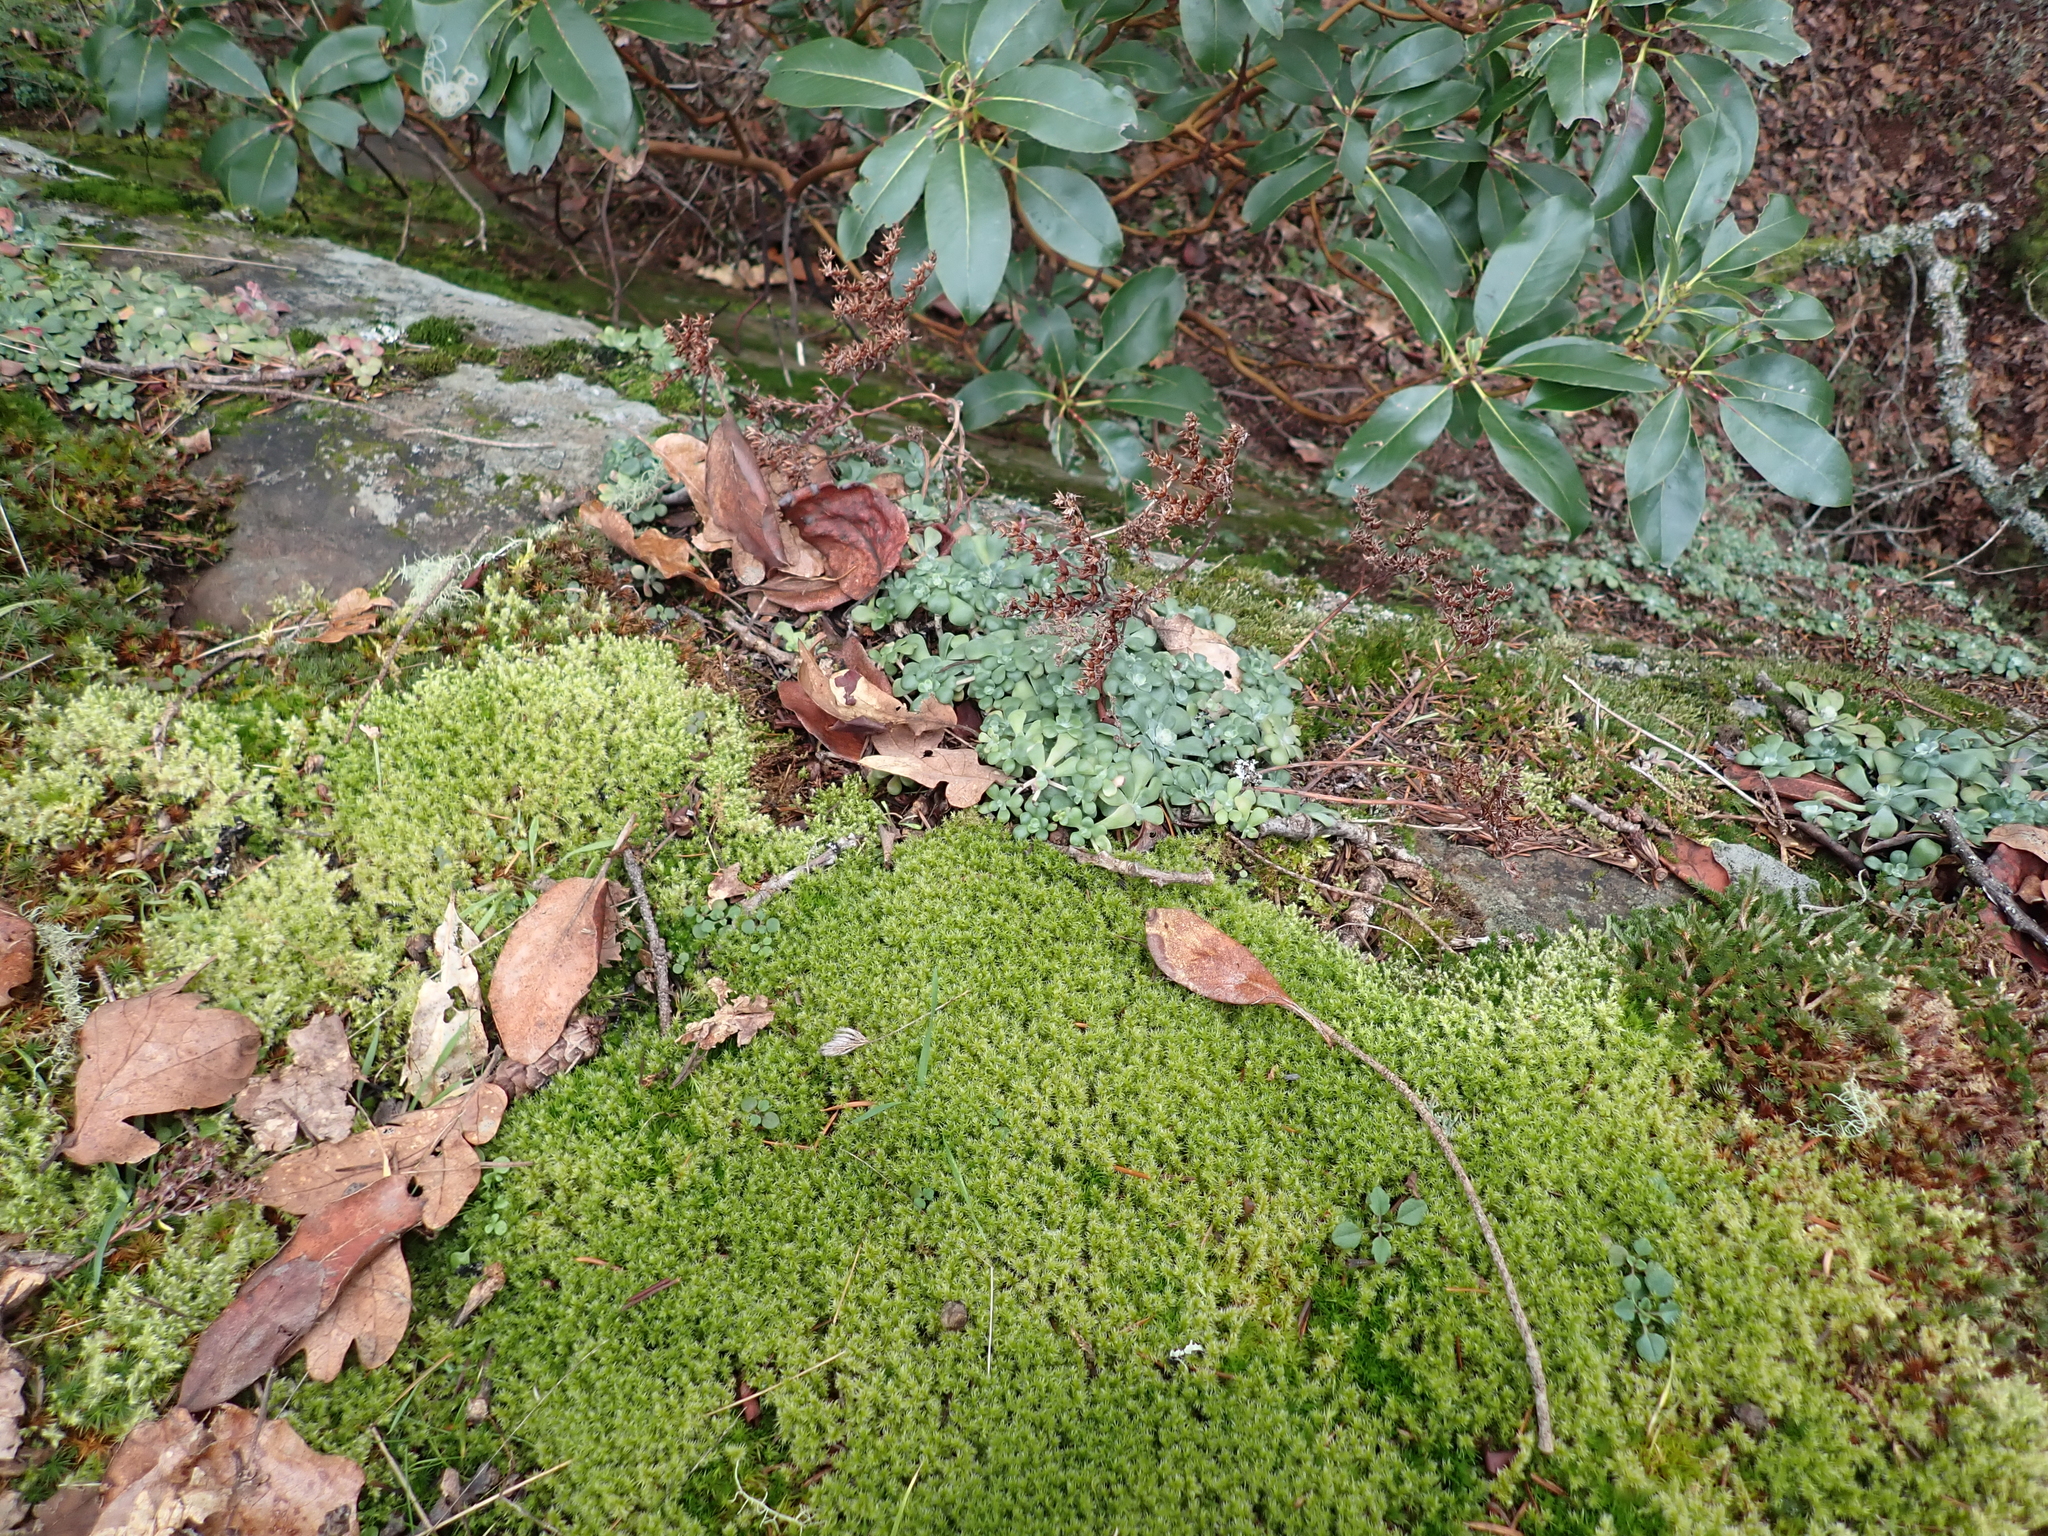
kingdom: Plantae
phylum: Tracheophyta
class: Magnoliopsida
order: Saxifragales
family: Crassulaceae
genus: Sedum
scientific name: Sedum spathulifolium
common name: Colorado stonecrop
